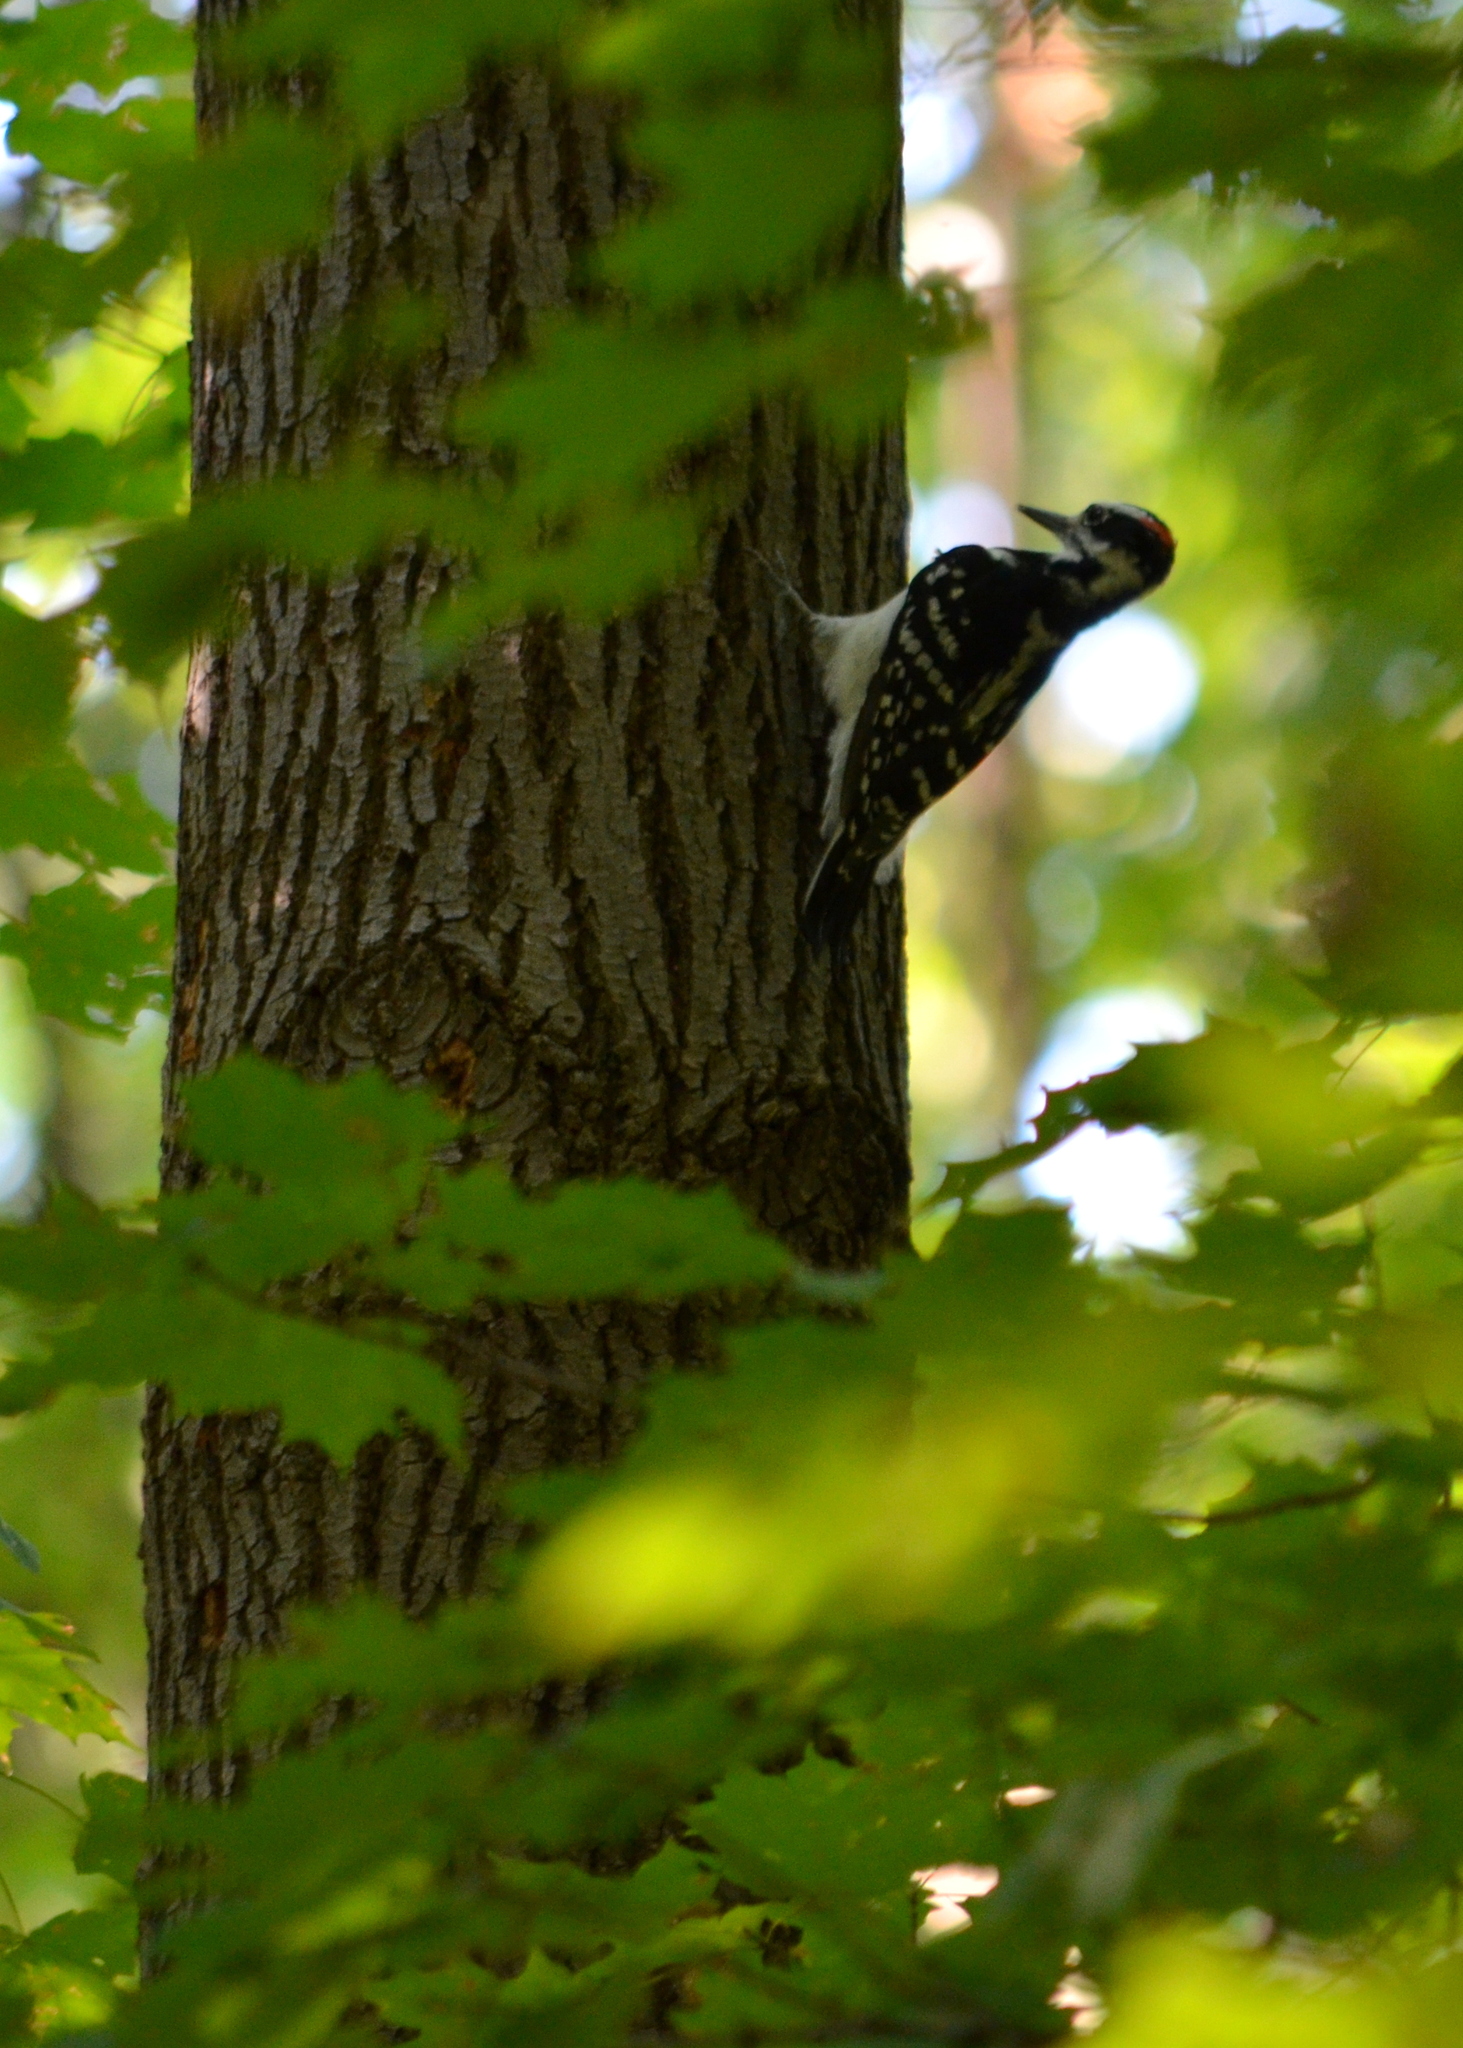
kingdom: Animalia
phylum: Chordata
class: Aves
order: Piciformes
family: Picidae
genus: Leuconotopicus
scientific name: Leuconotopicus villosus
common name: Hairy woodpecker
